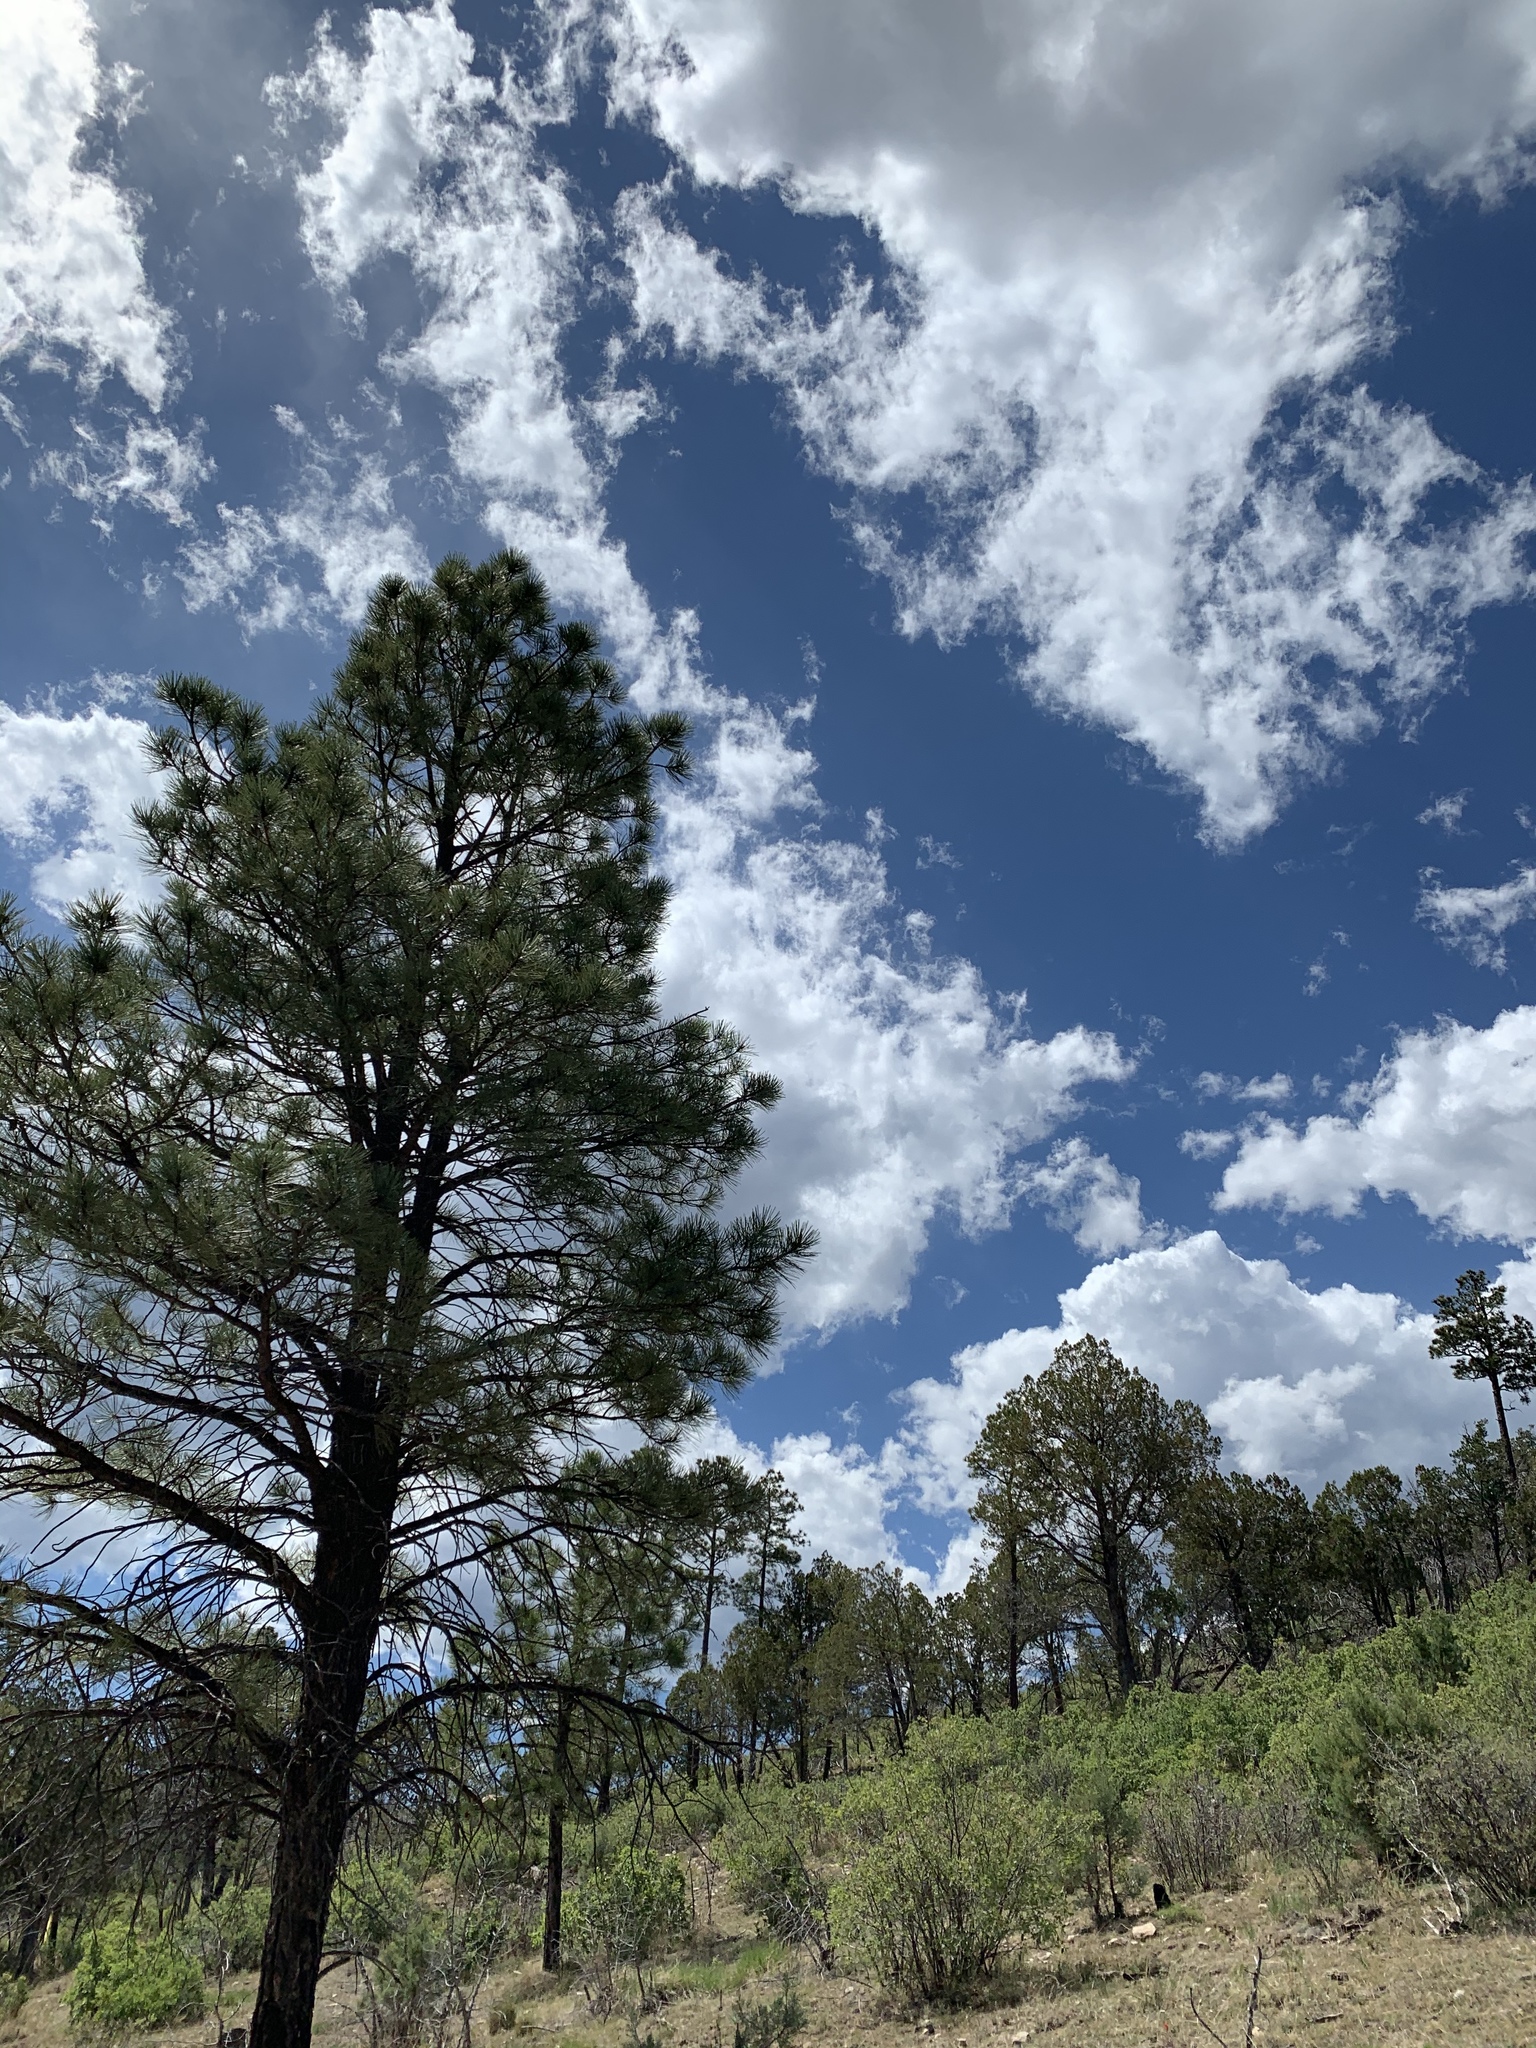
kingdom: Plantae
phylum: Tracheophyta
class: Pinopsida
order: Pinales
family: Pinaceae
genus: Pinus
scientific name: Pinus ponderosa
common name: Western yellow-pine
